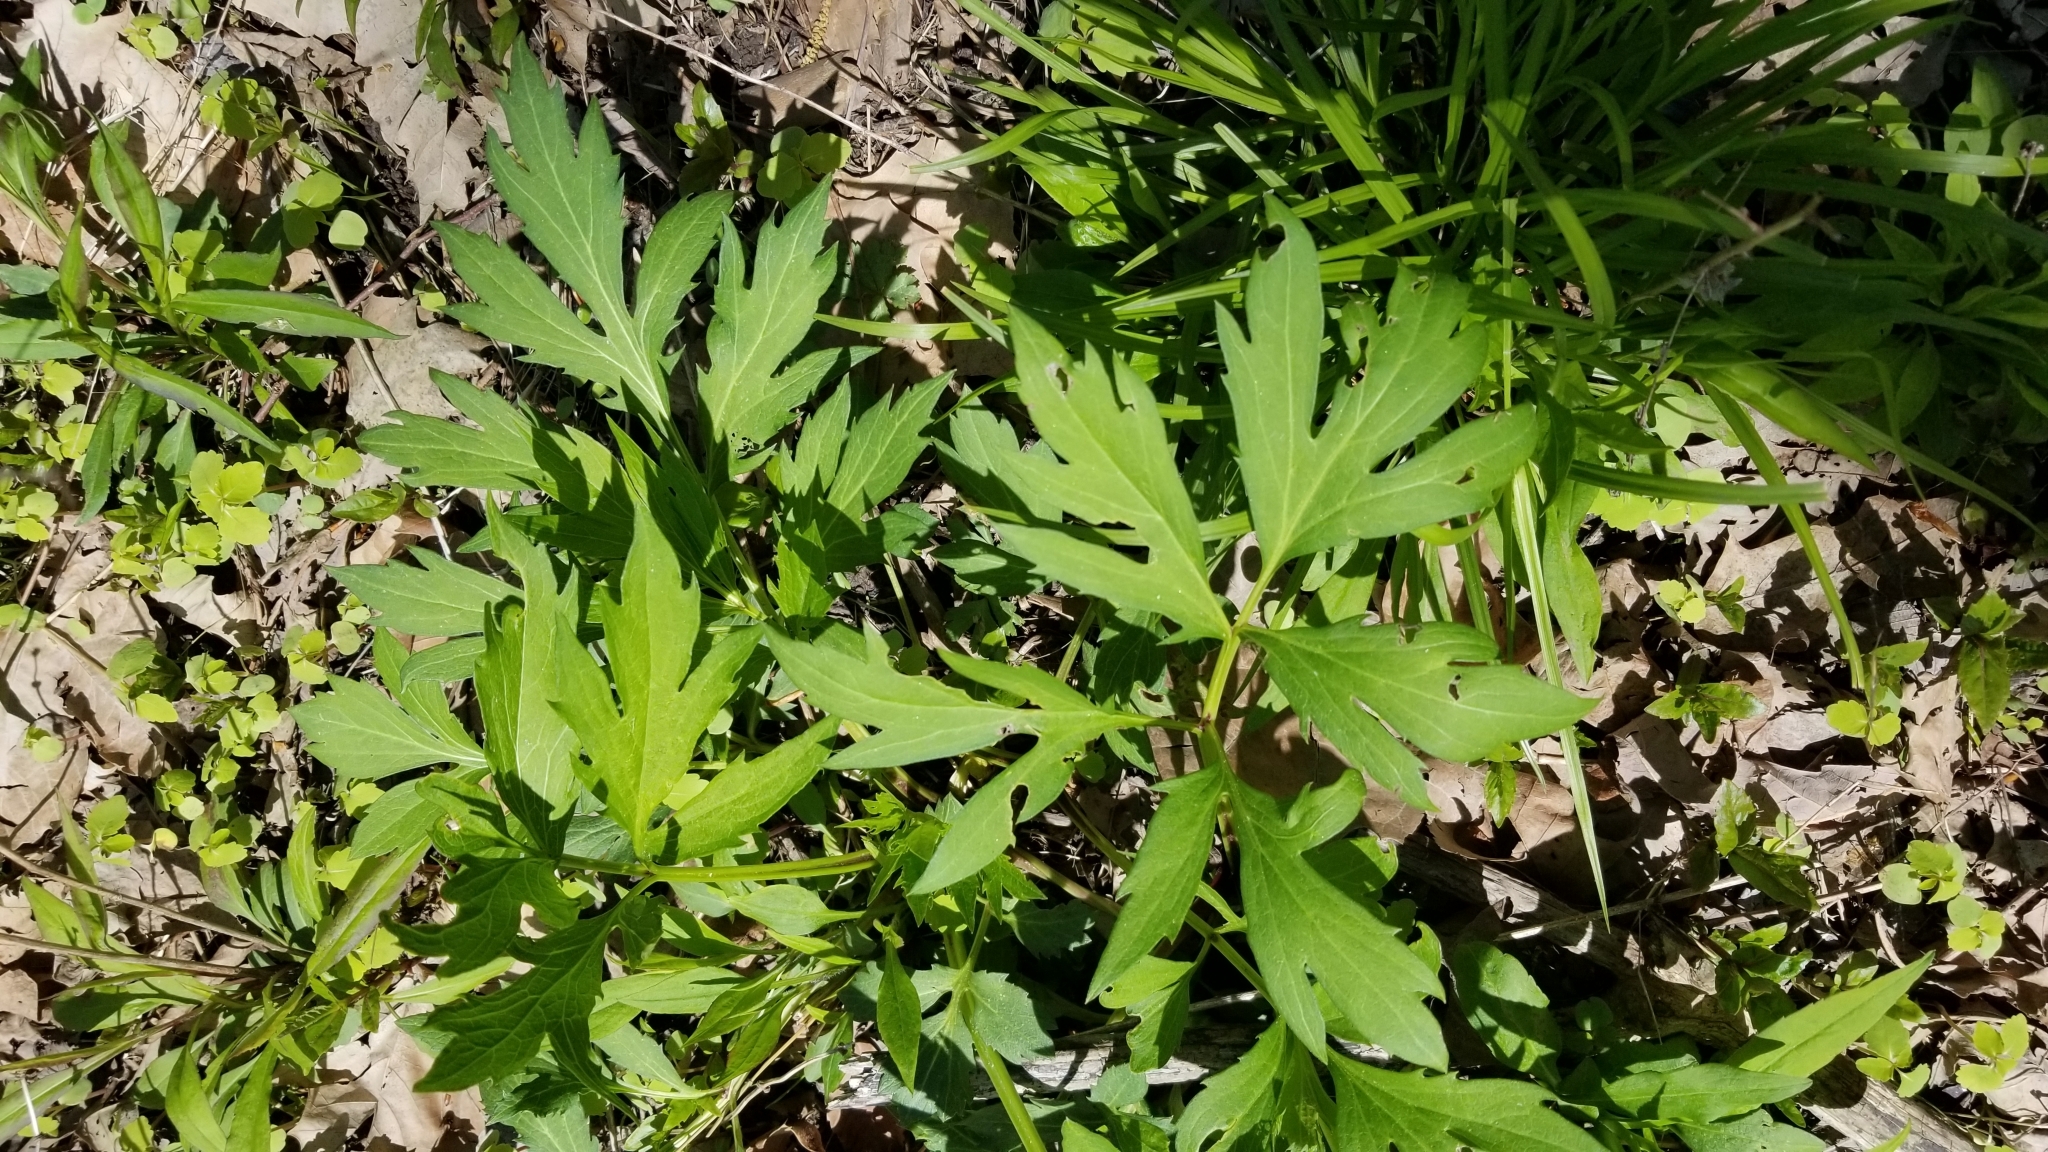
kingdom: Plantae
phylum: Tracheophyta
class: Magnoliopsida
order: Asterales
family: Asteraceae
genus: Rudbeckia
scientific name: Rudbeckia laciniata
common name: Coneflower
